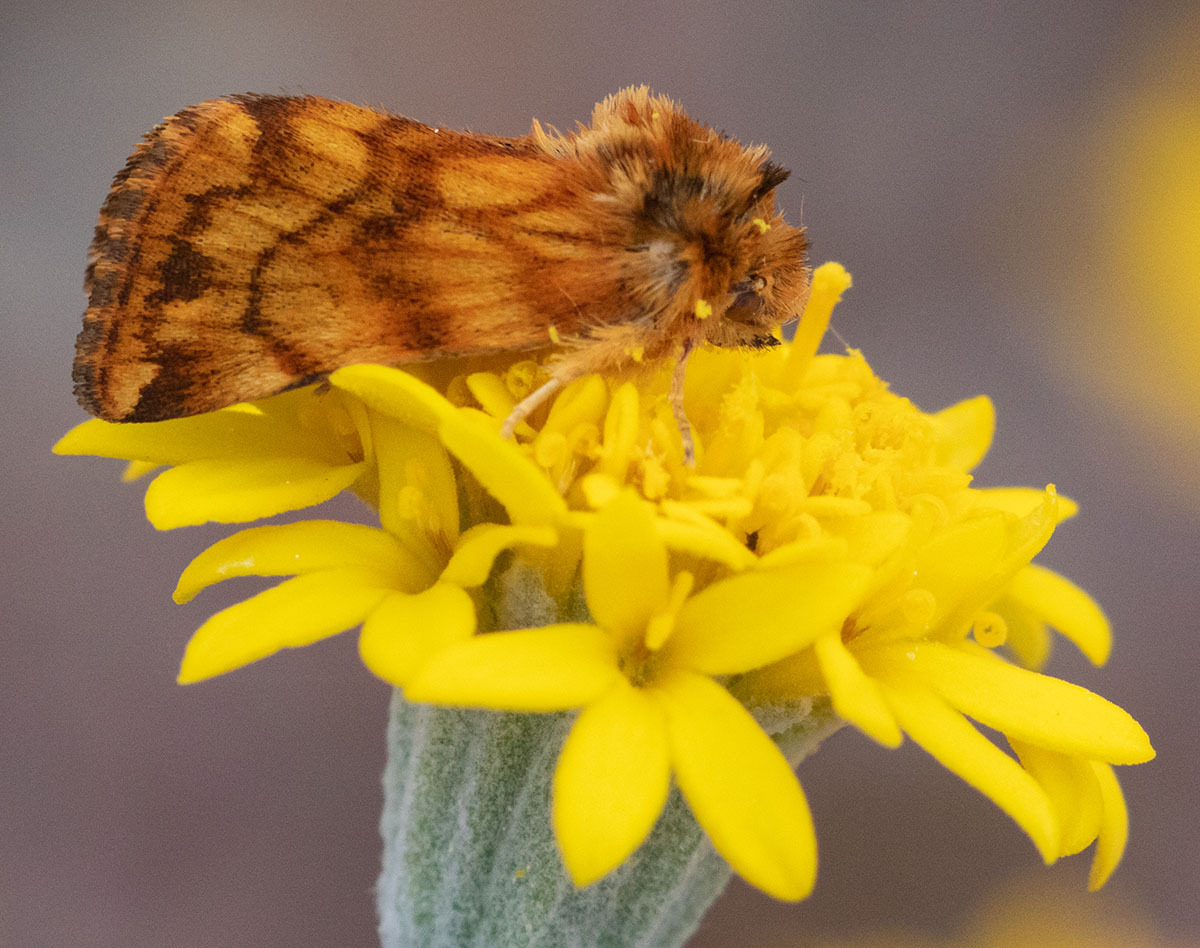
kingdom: Plantae
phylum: Tracheophyta
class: Magnoliopsida
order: Asterales
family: Asteraceae
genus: Chaenactis
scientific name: Chaenactis glabriuscula
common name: Yellow pincushion
